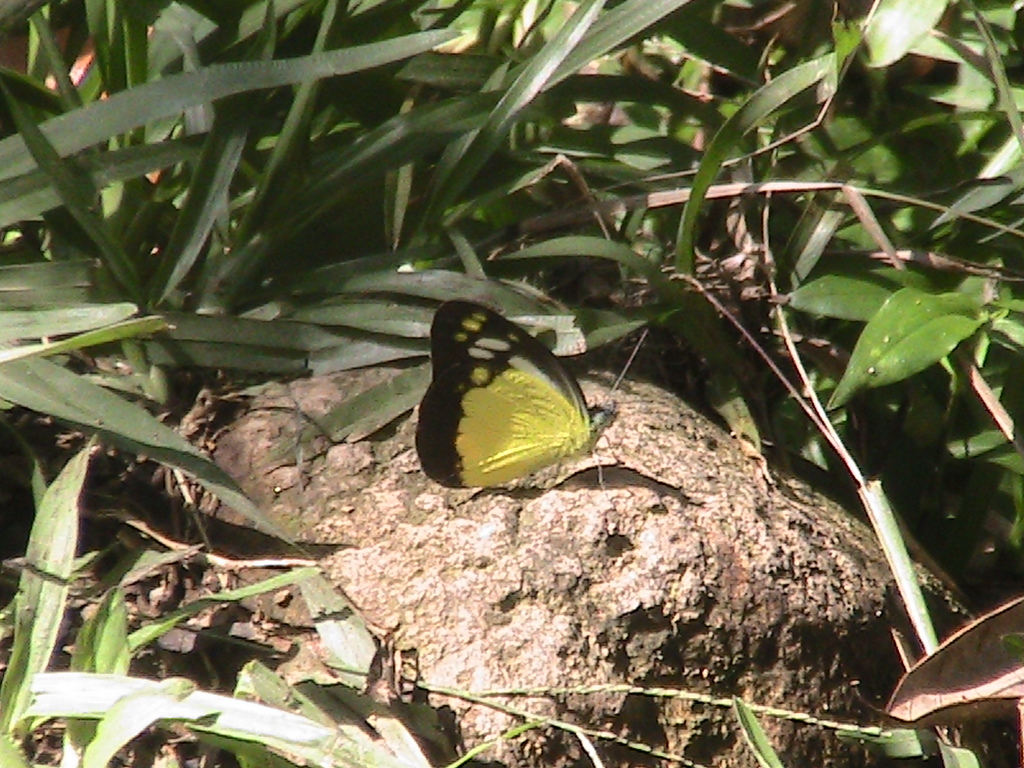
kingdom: Animalia
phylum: Arthropoda
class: Insecta
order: Lepidoptera
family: Pieridae
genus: Cepora
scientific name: Cepora iudith
